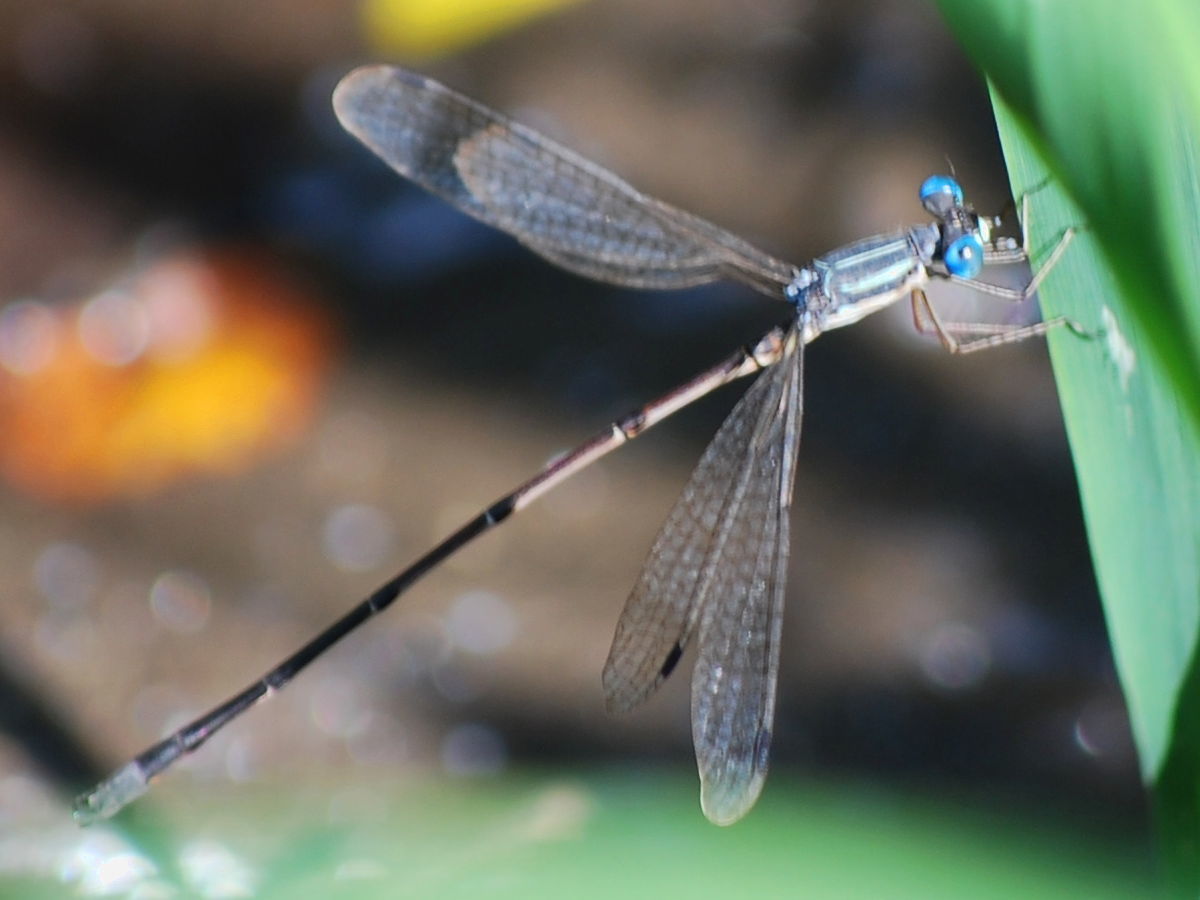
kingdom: Animalia
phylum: Arthropoda
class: Insecta
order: Odonata
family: Lestidae
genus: Lestes
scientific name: Lestes rectangularis
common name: Slender spreadwing
